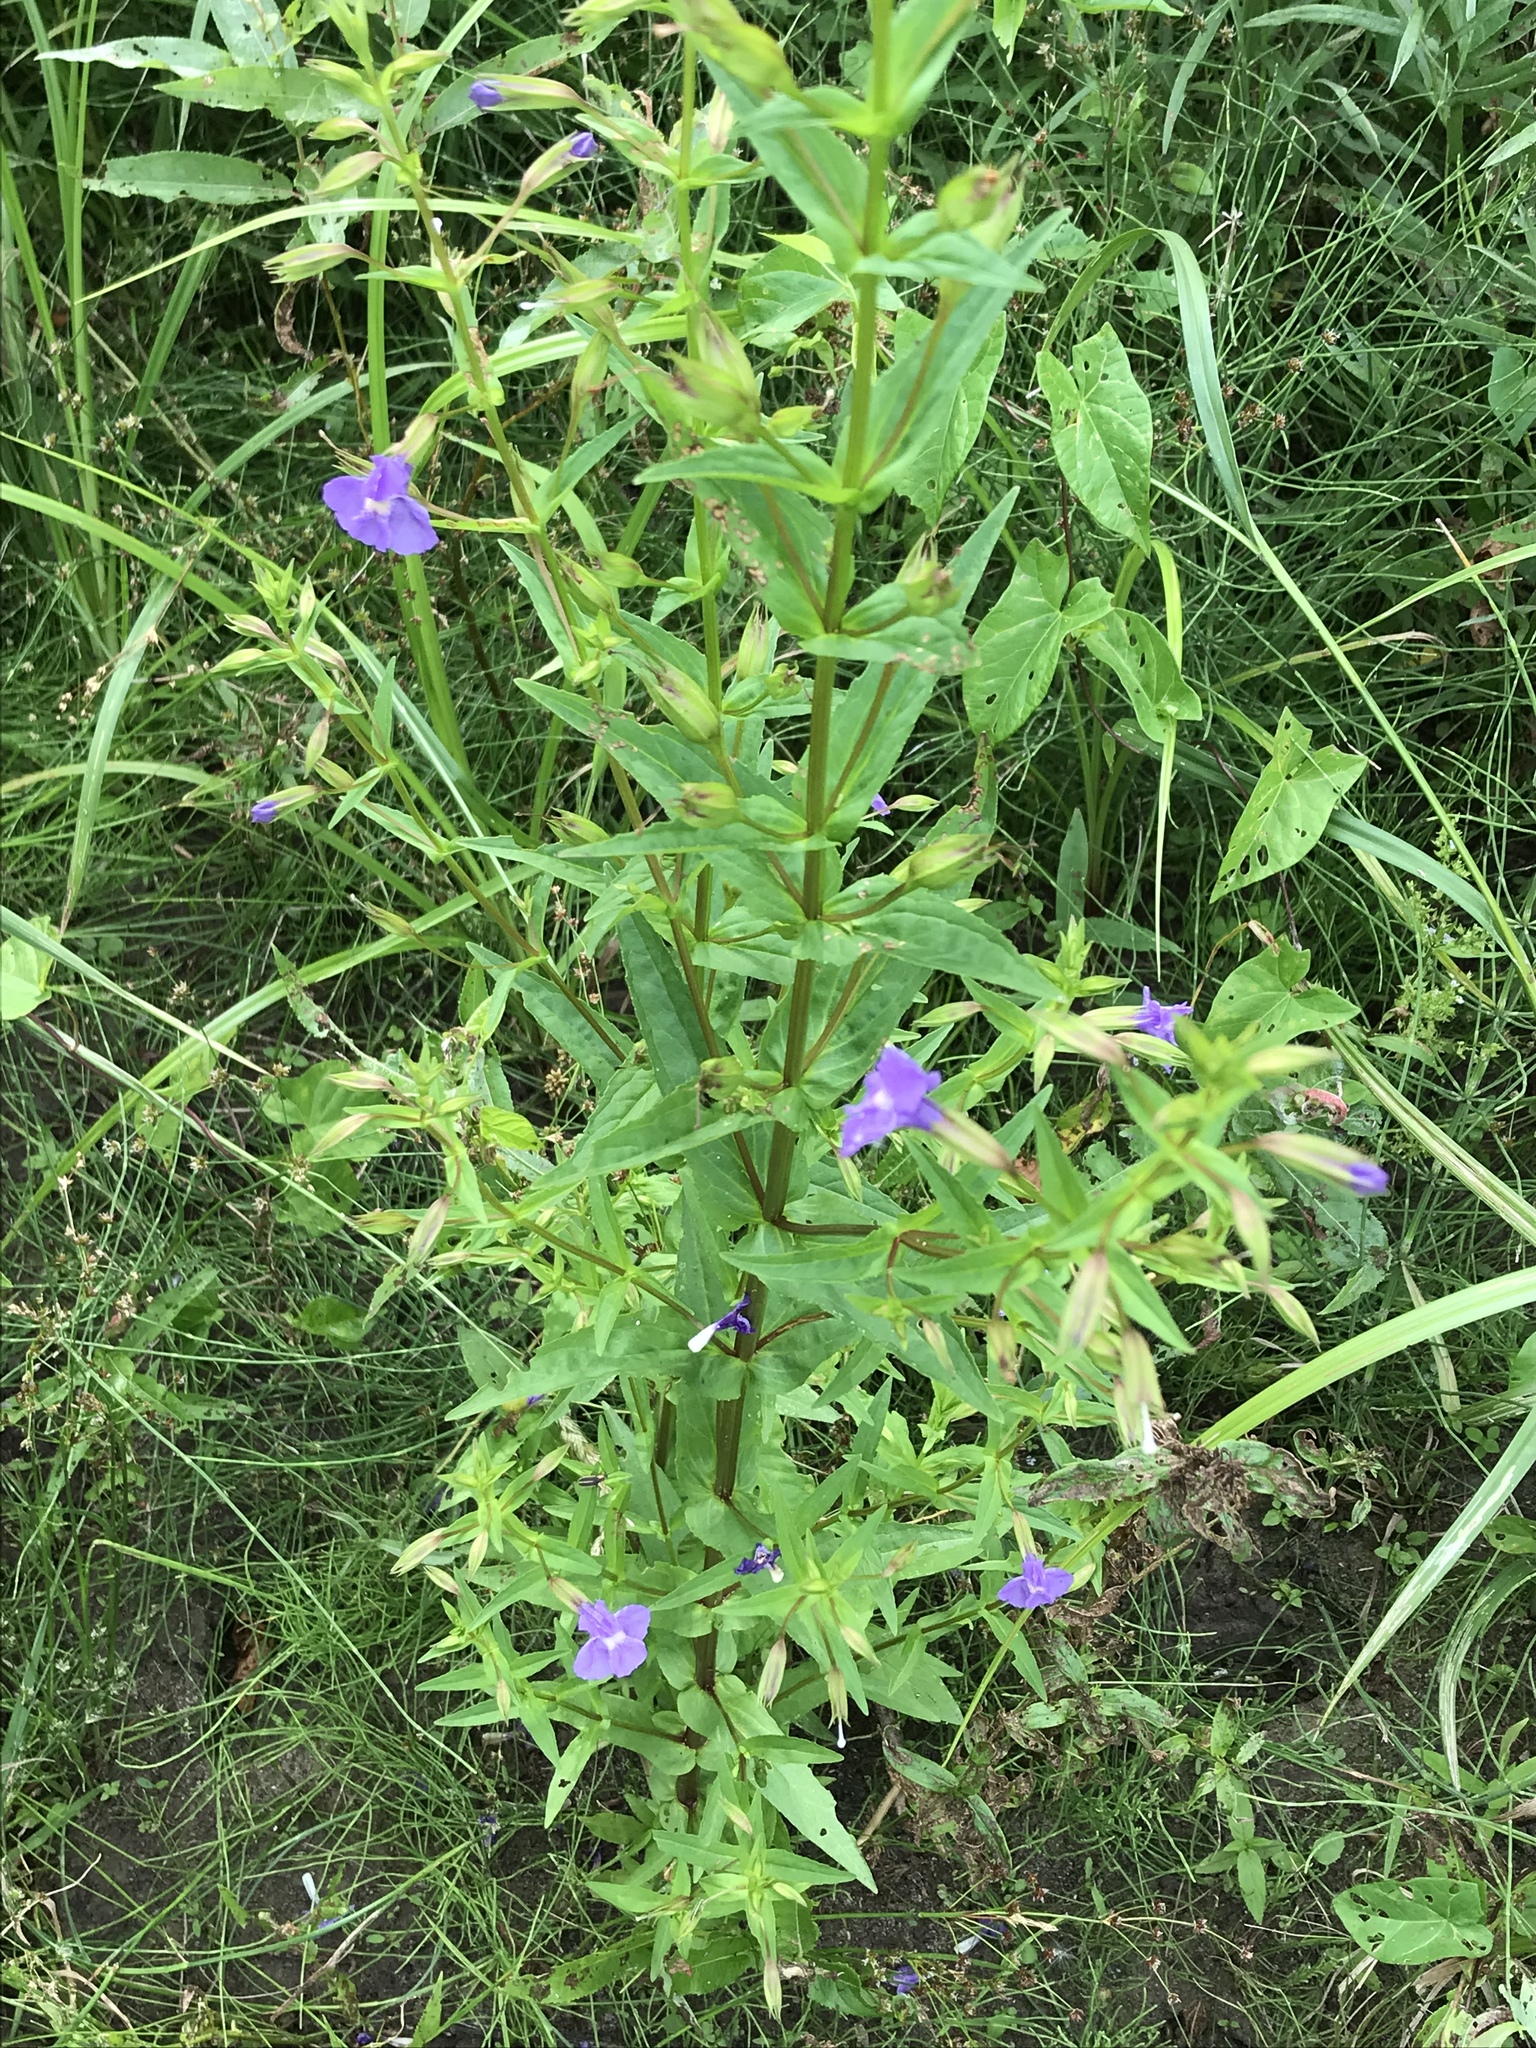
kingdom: Plantae
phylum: Tracheophyta
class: Magnoliopsida
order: Lamiales
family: Phrymaceae
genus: Mimulus
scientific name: Mimulus ringens
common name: Allegheny monkeyflower
